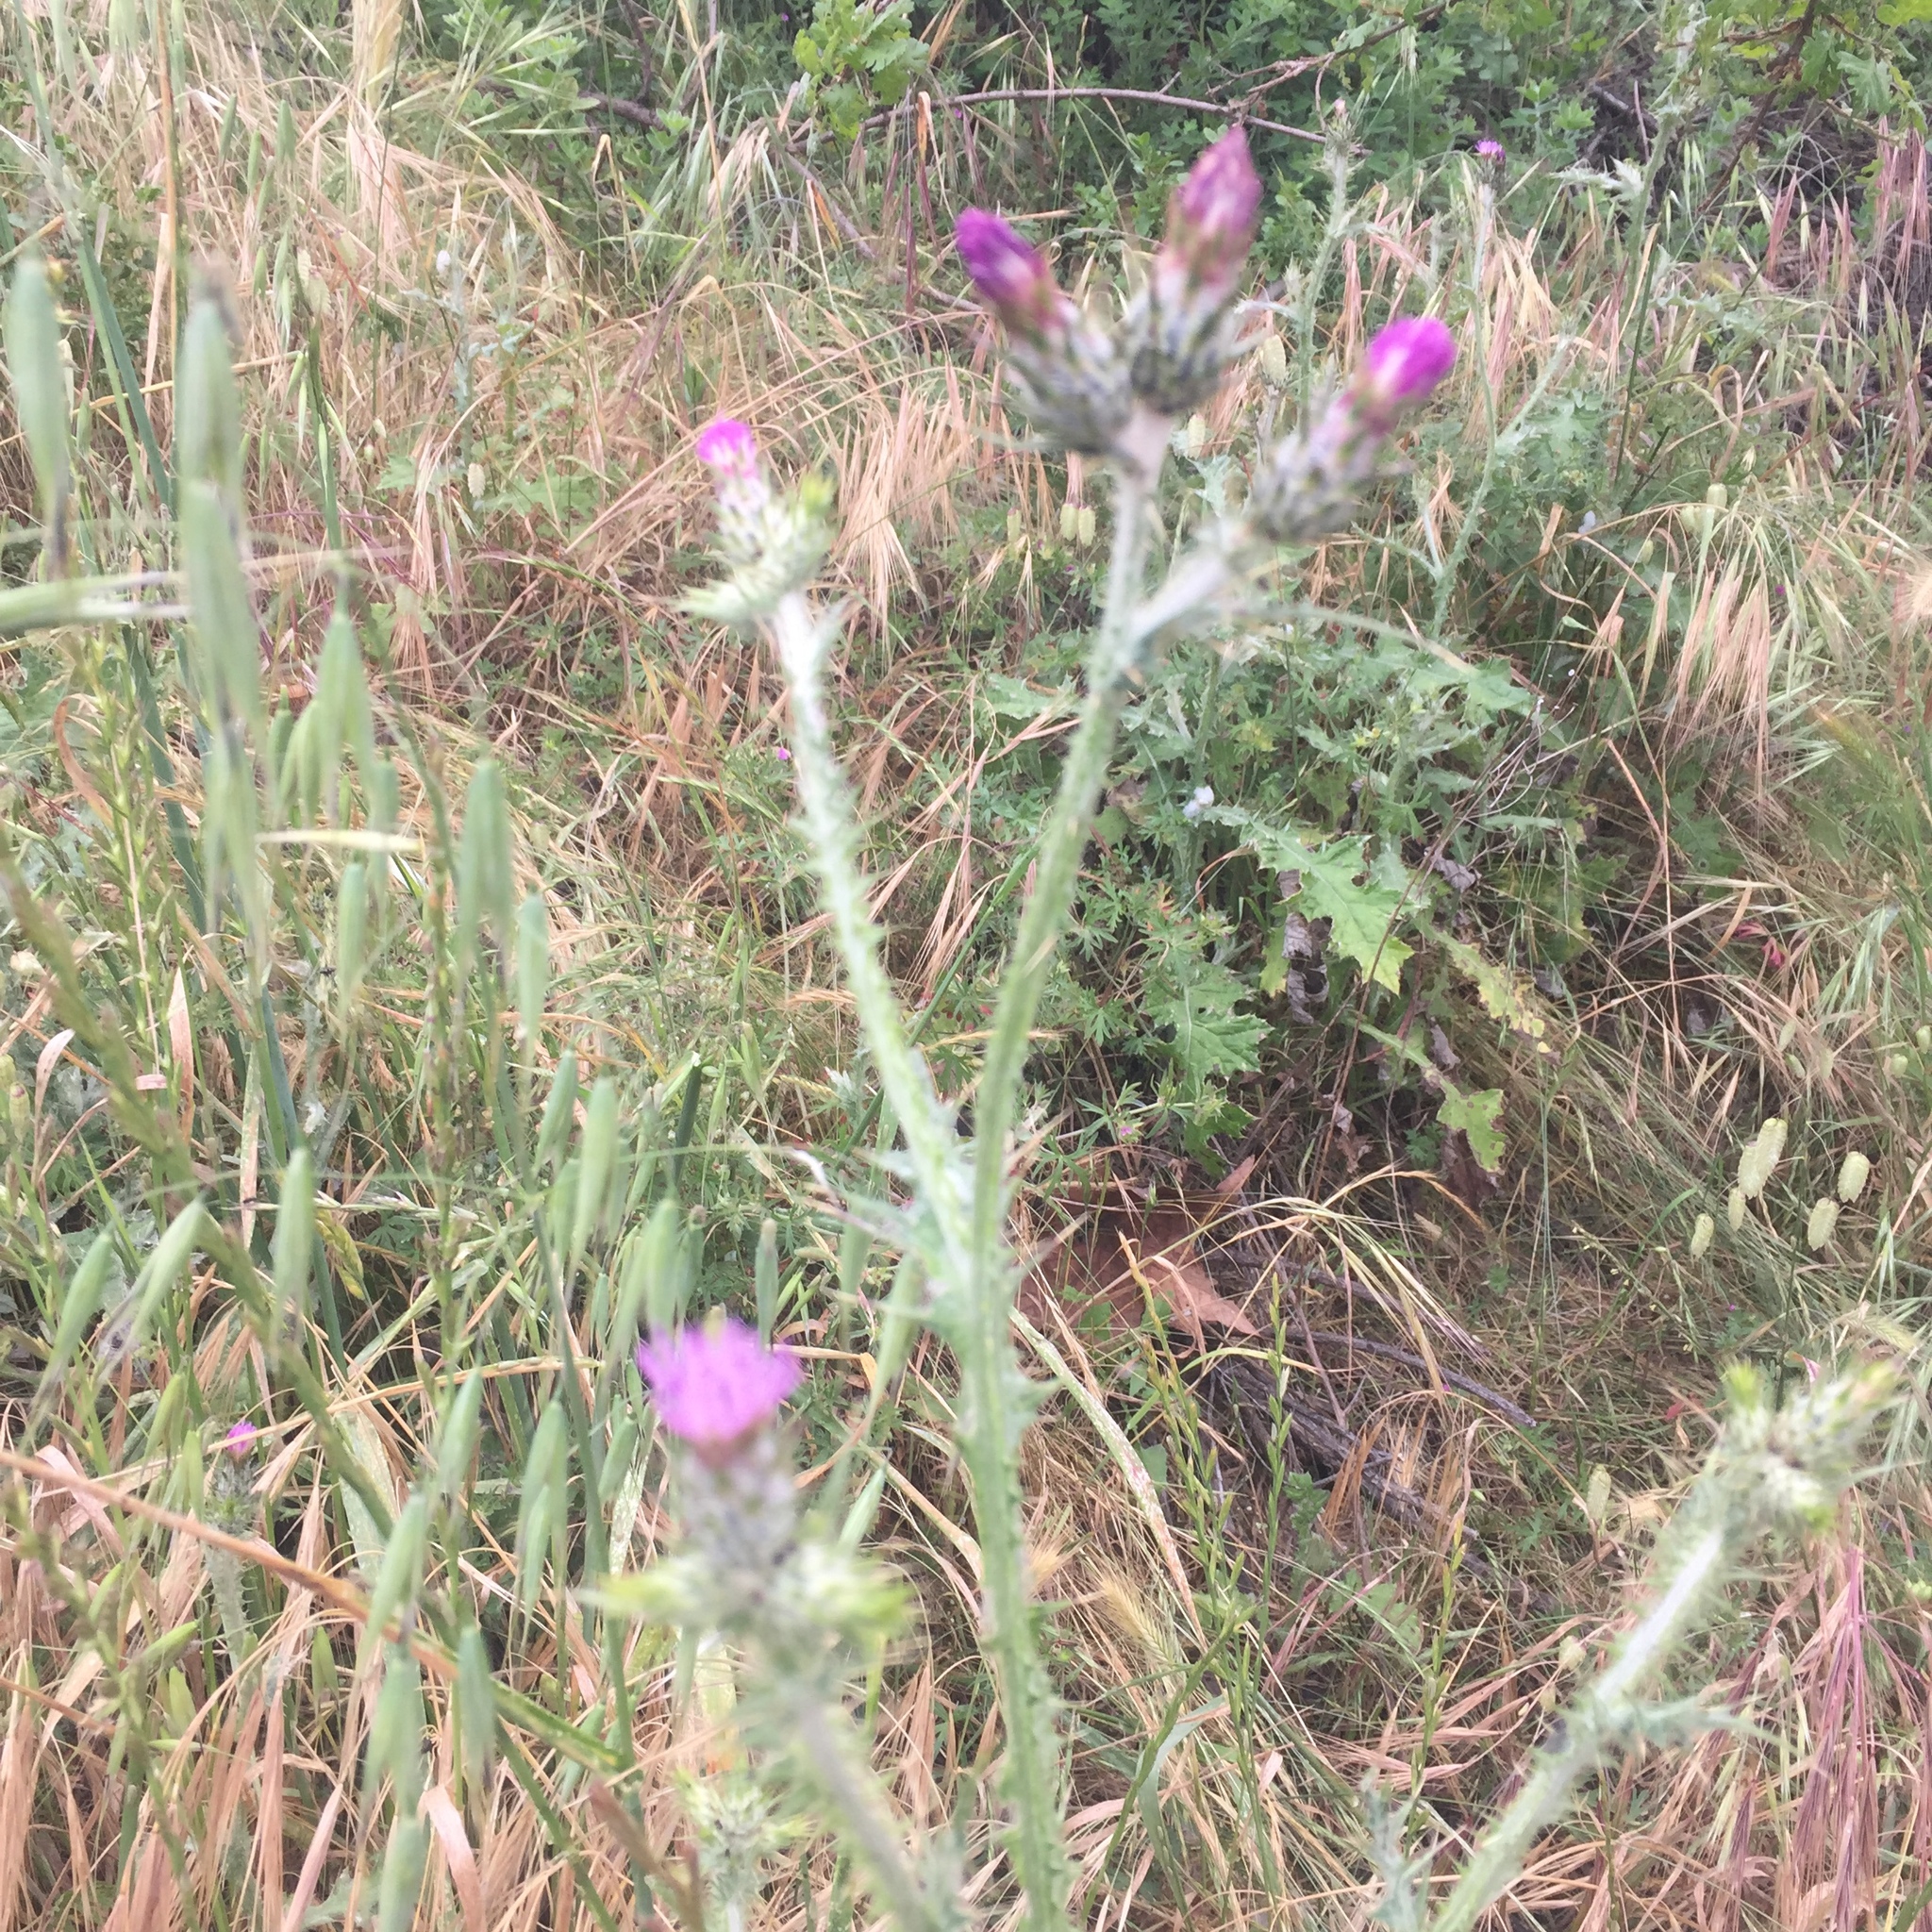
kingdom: Plantae
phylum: Tracheophyta
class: Magnoliopsida
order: Asterales
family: Asteraceae
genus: Carduus
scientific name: Carduus pycnocephalus
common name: Plymouth thistle
